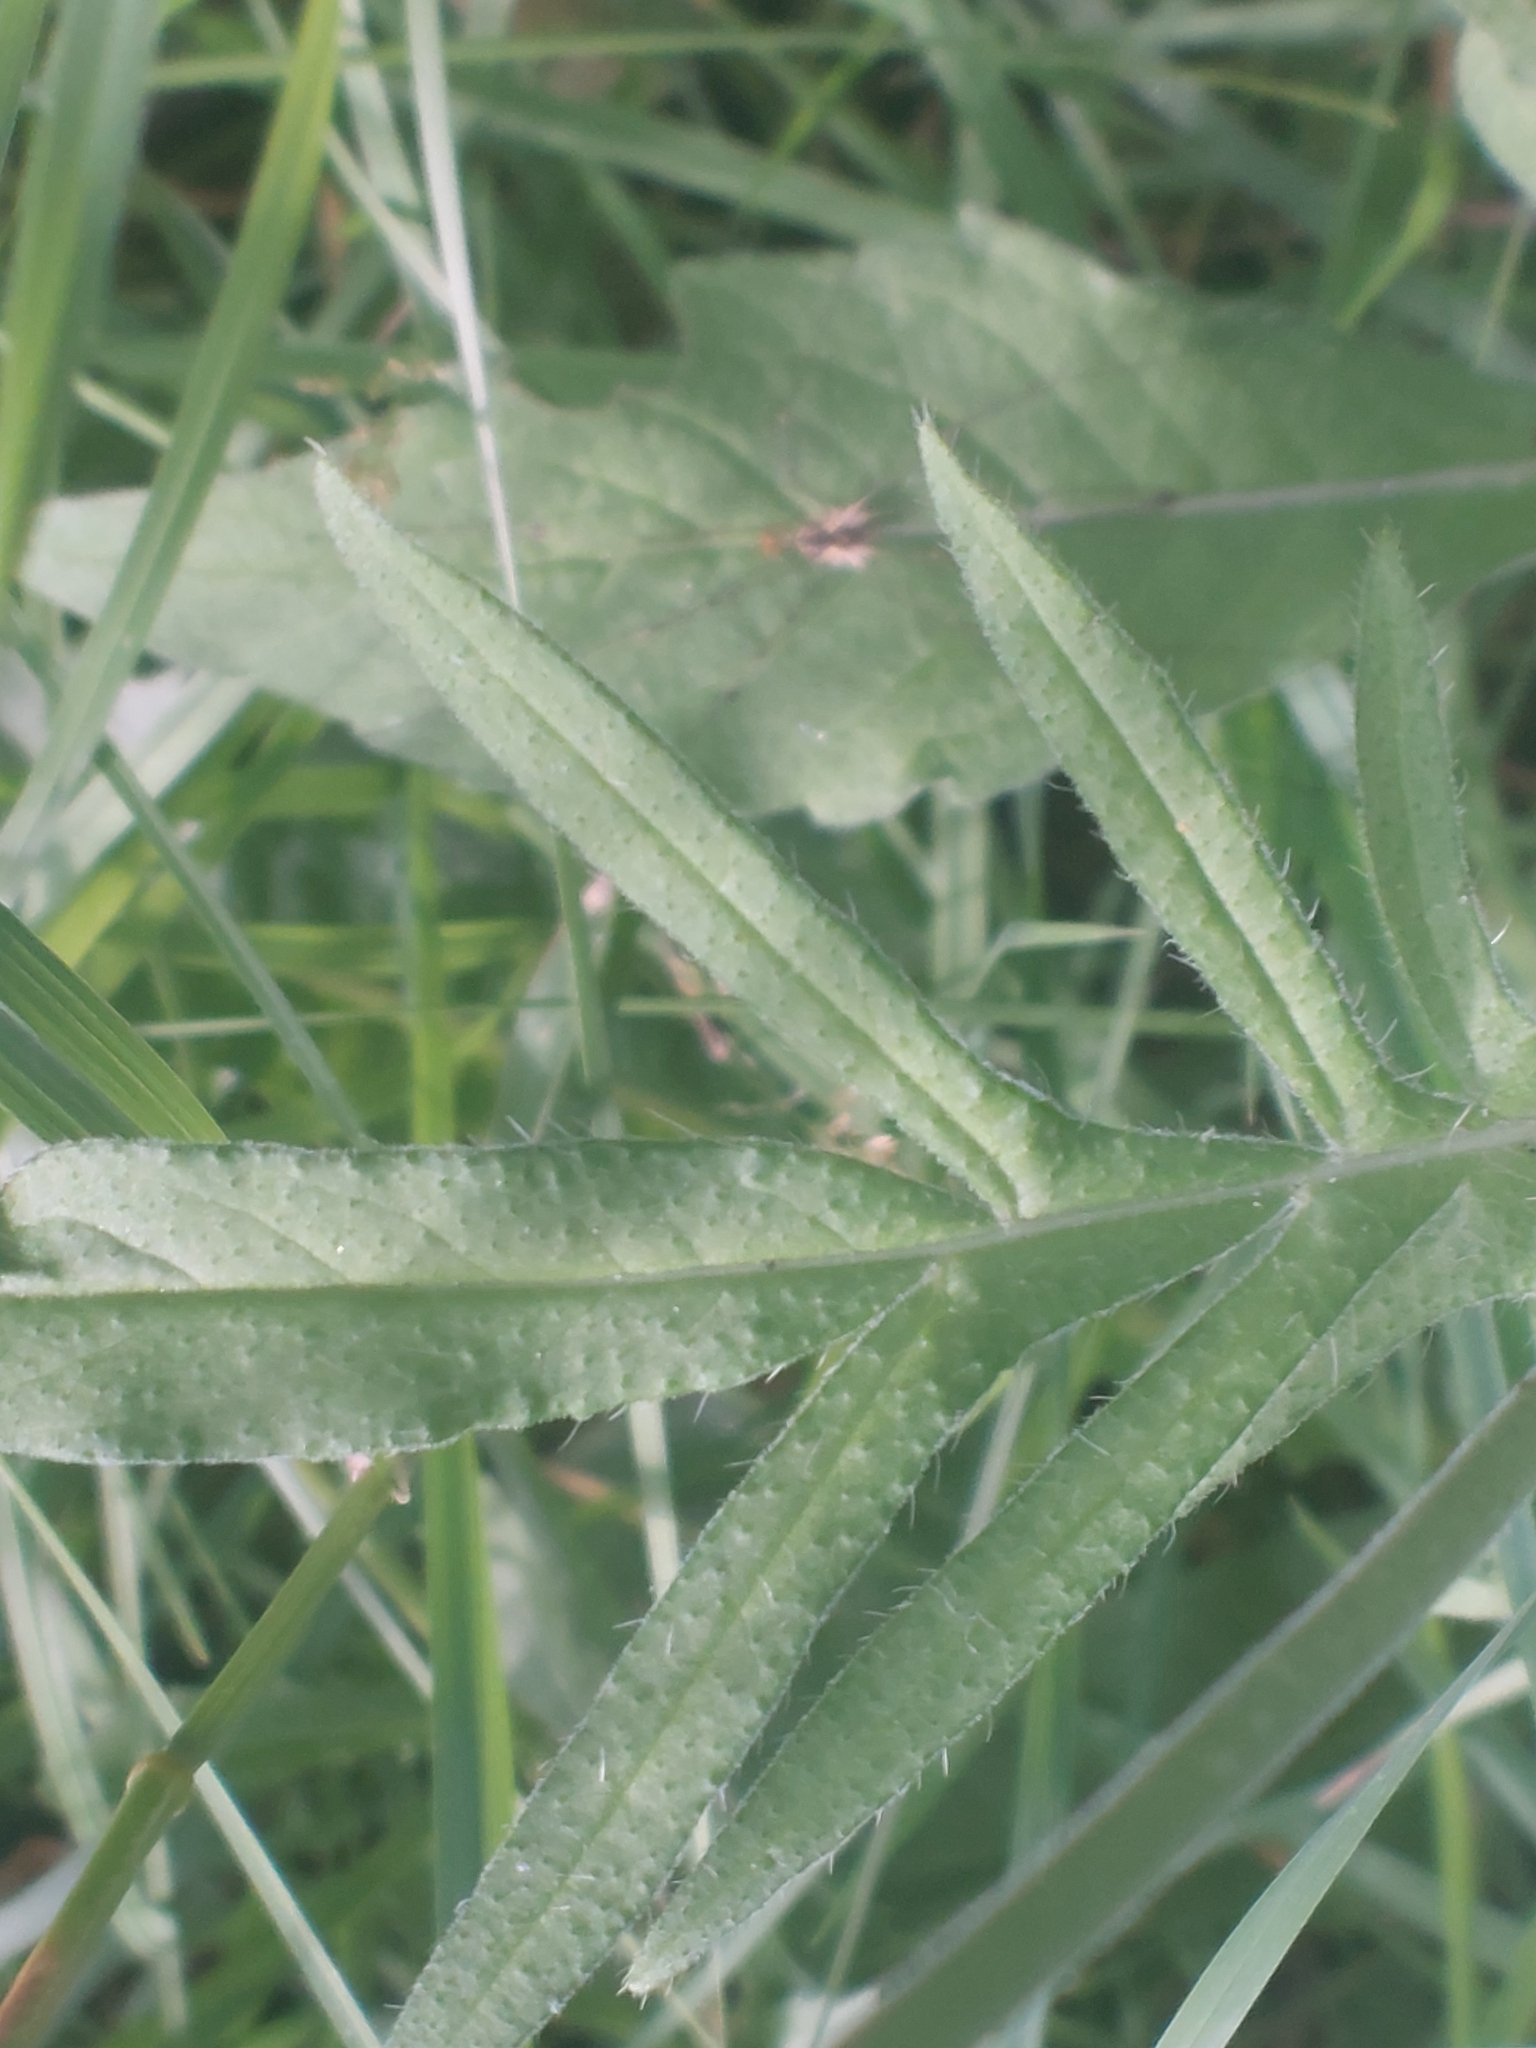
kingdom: Plantae
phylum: Tracheophyta
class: Magnoliopsida
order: Dipsacales
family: Caprifoliaceae
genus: Knautia
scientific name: Knautia arvensis
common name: Field scabiosa
